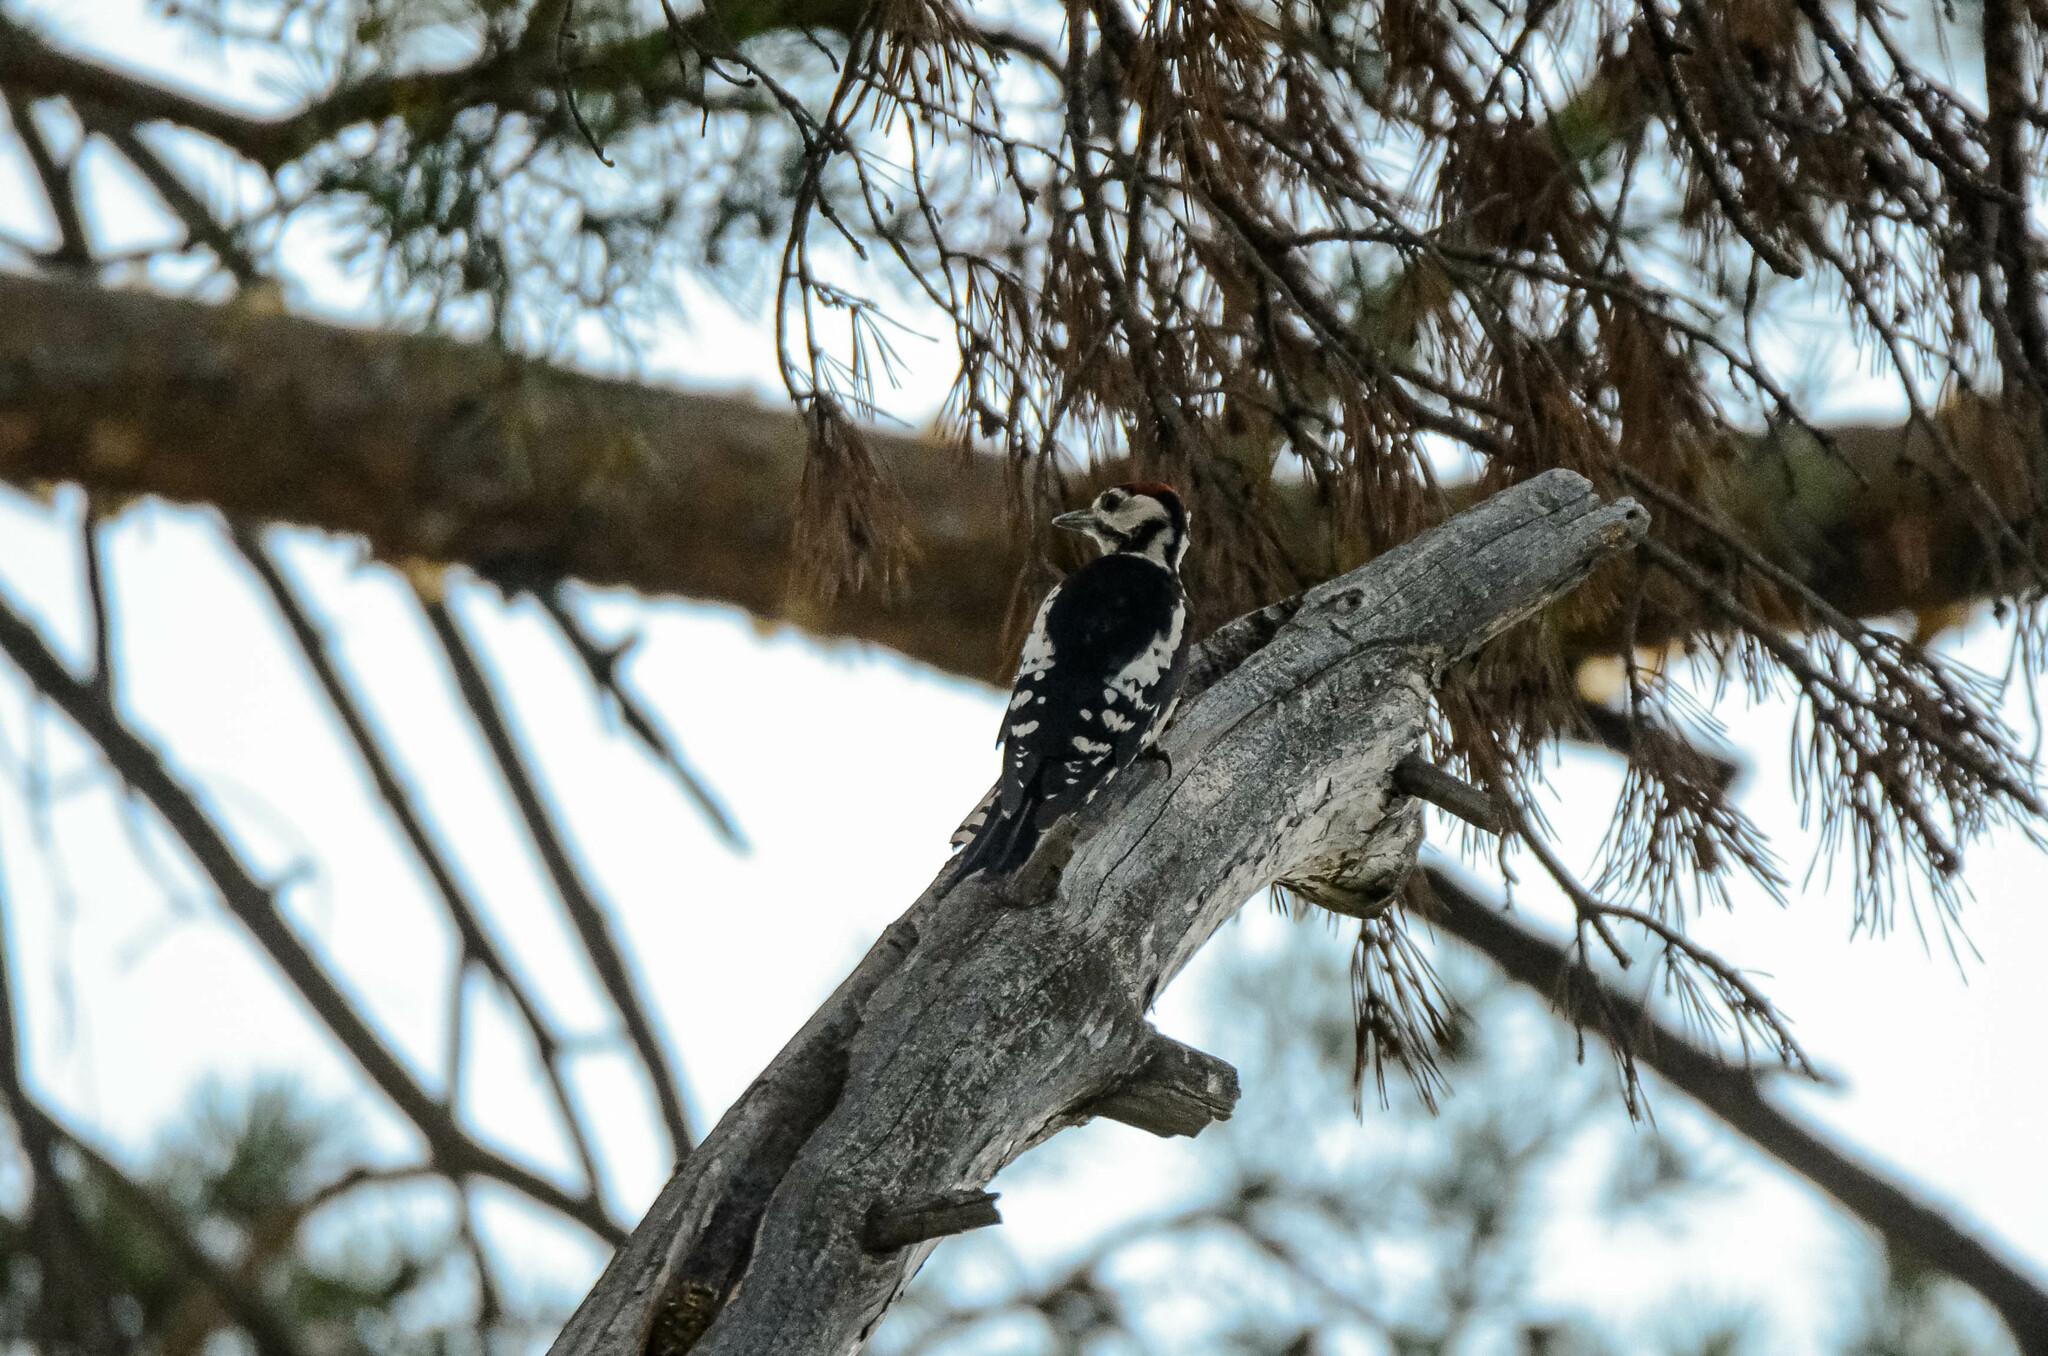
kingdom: Animalia
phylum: Chordata
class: Aves
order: Piciformes
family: Picidae
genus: Dendrocopos
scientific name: Dendrocopos major
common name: Great spotted woodpecker
